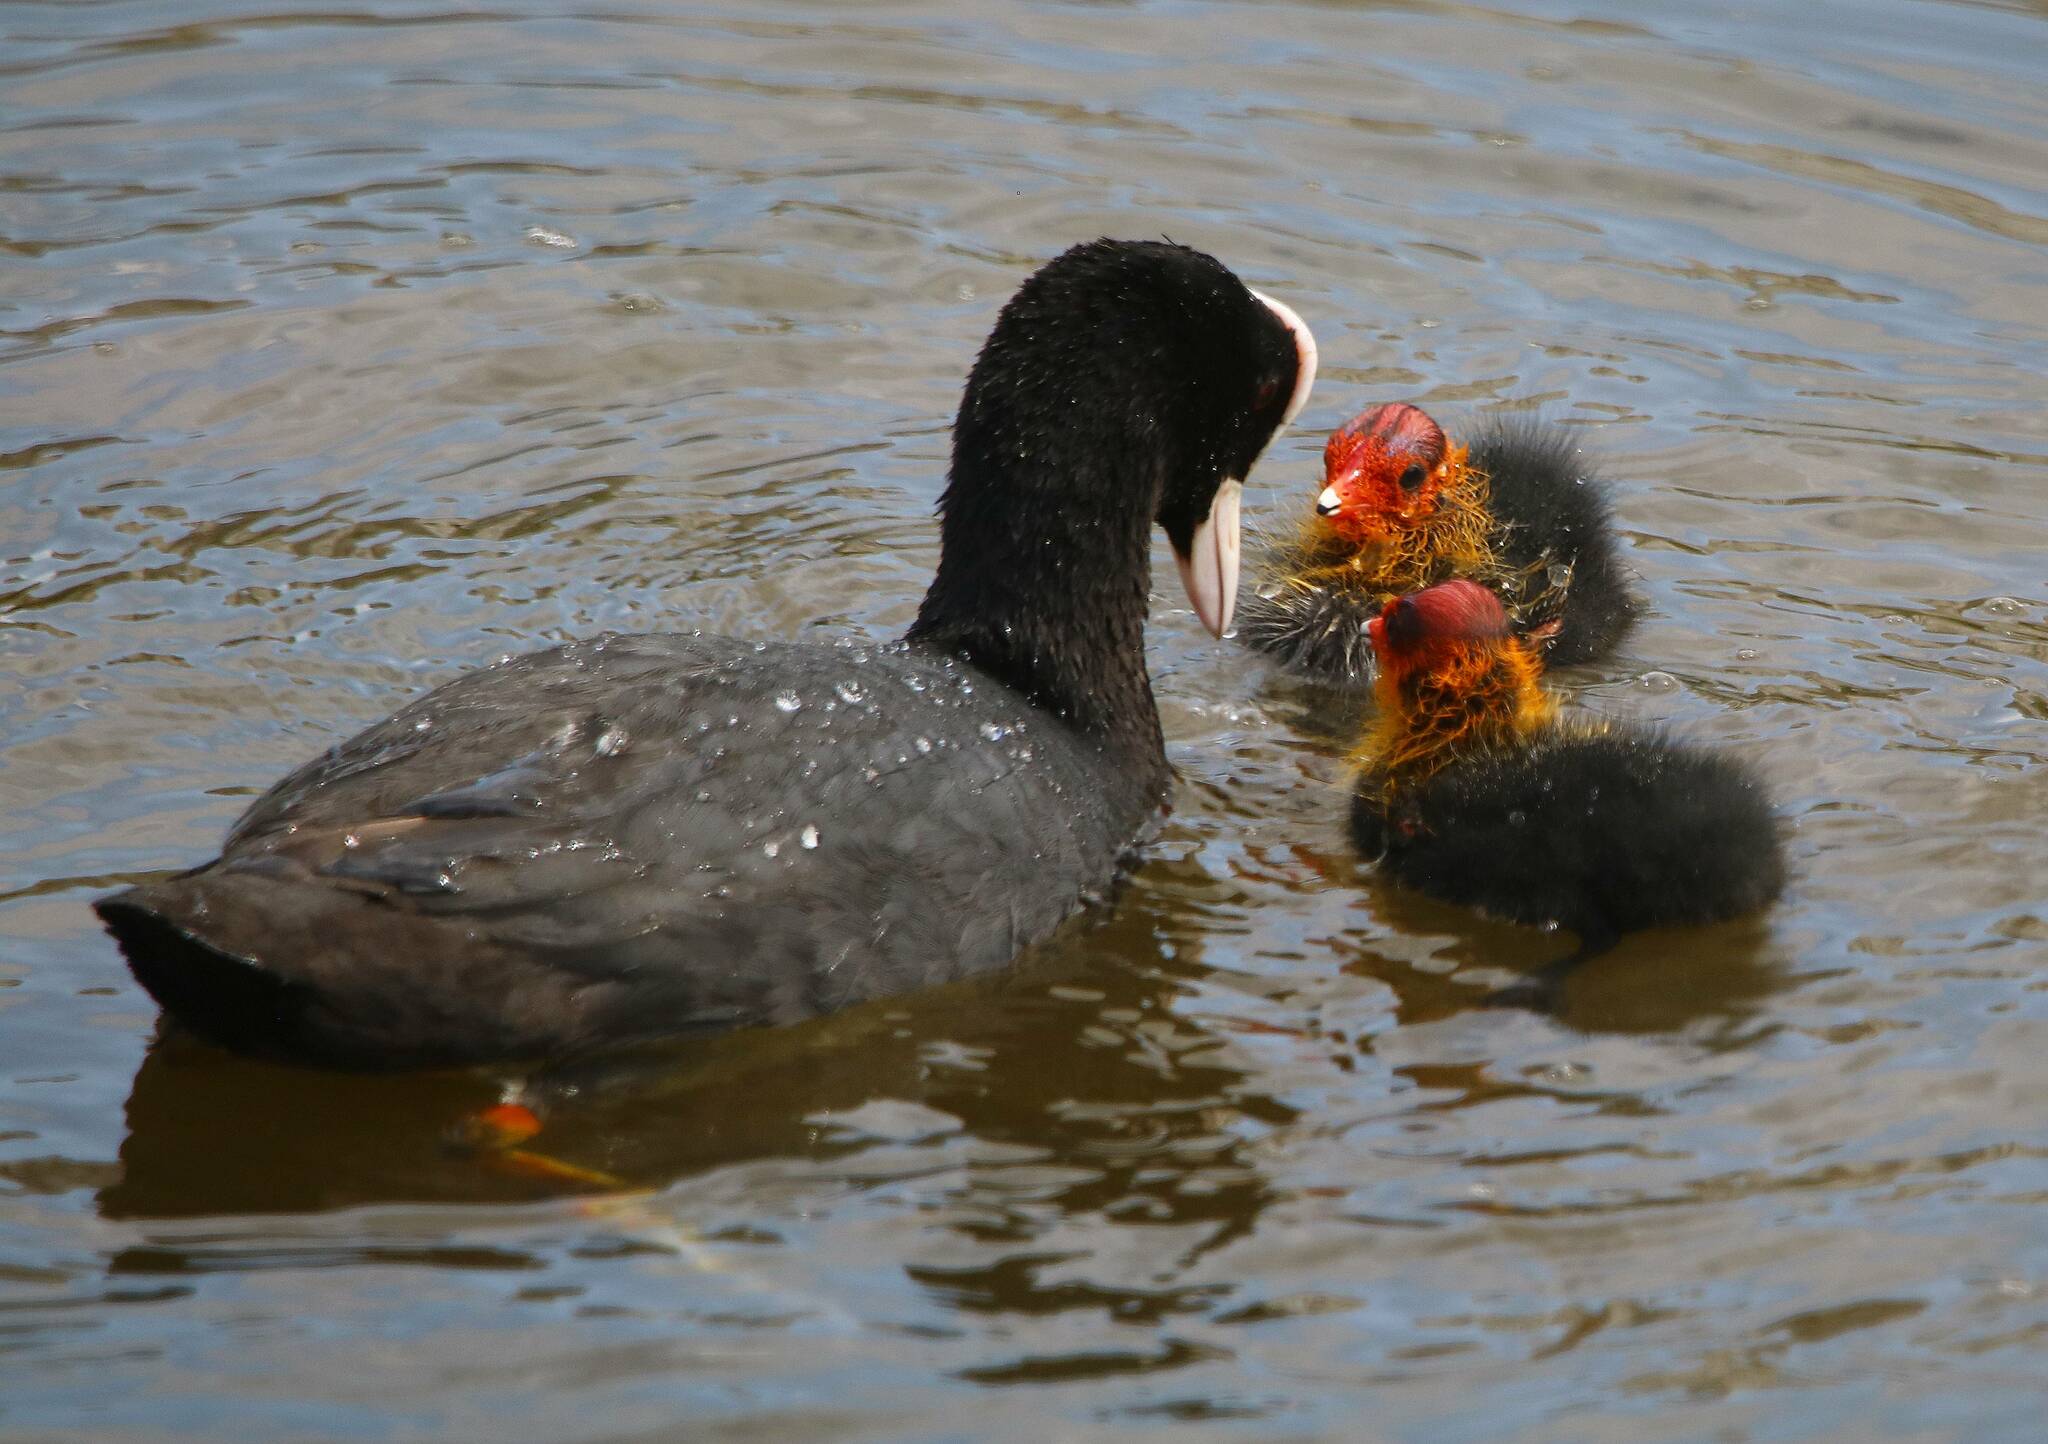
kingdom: Animalia
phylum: Chordata
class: Aves
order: Gruiformes
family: Rallidae
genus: Fulica
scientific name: Fulica atra
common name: Eurasian coot
